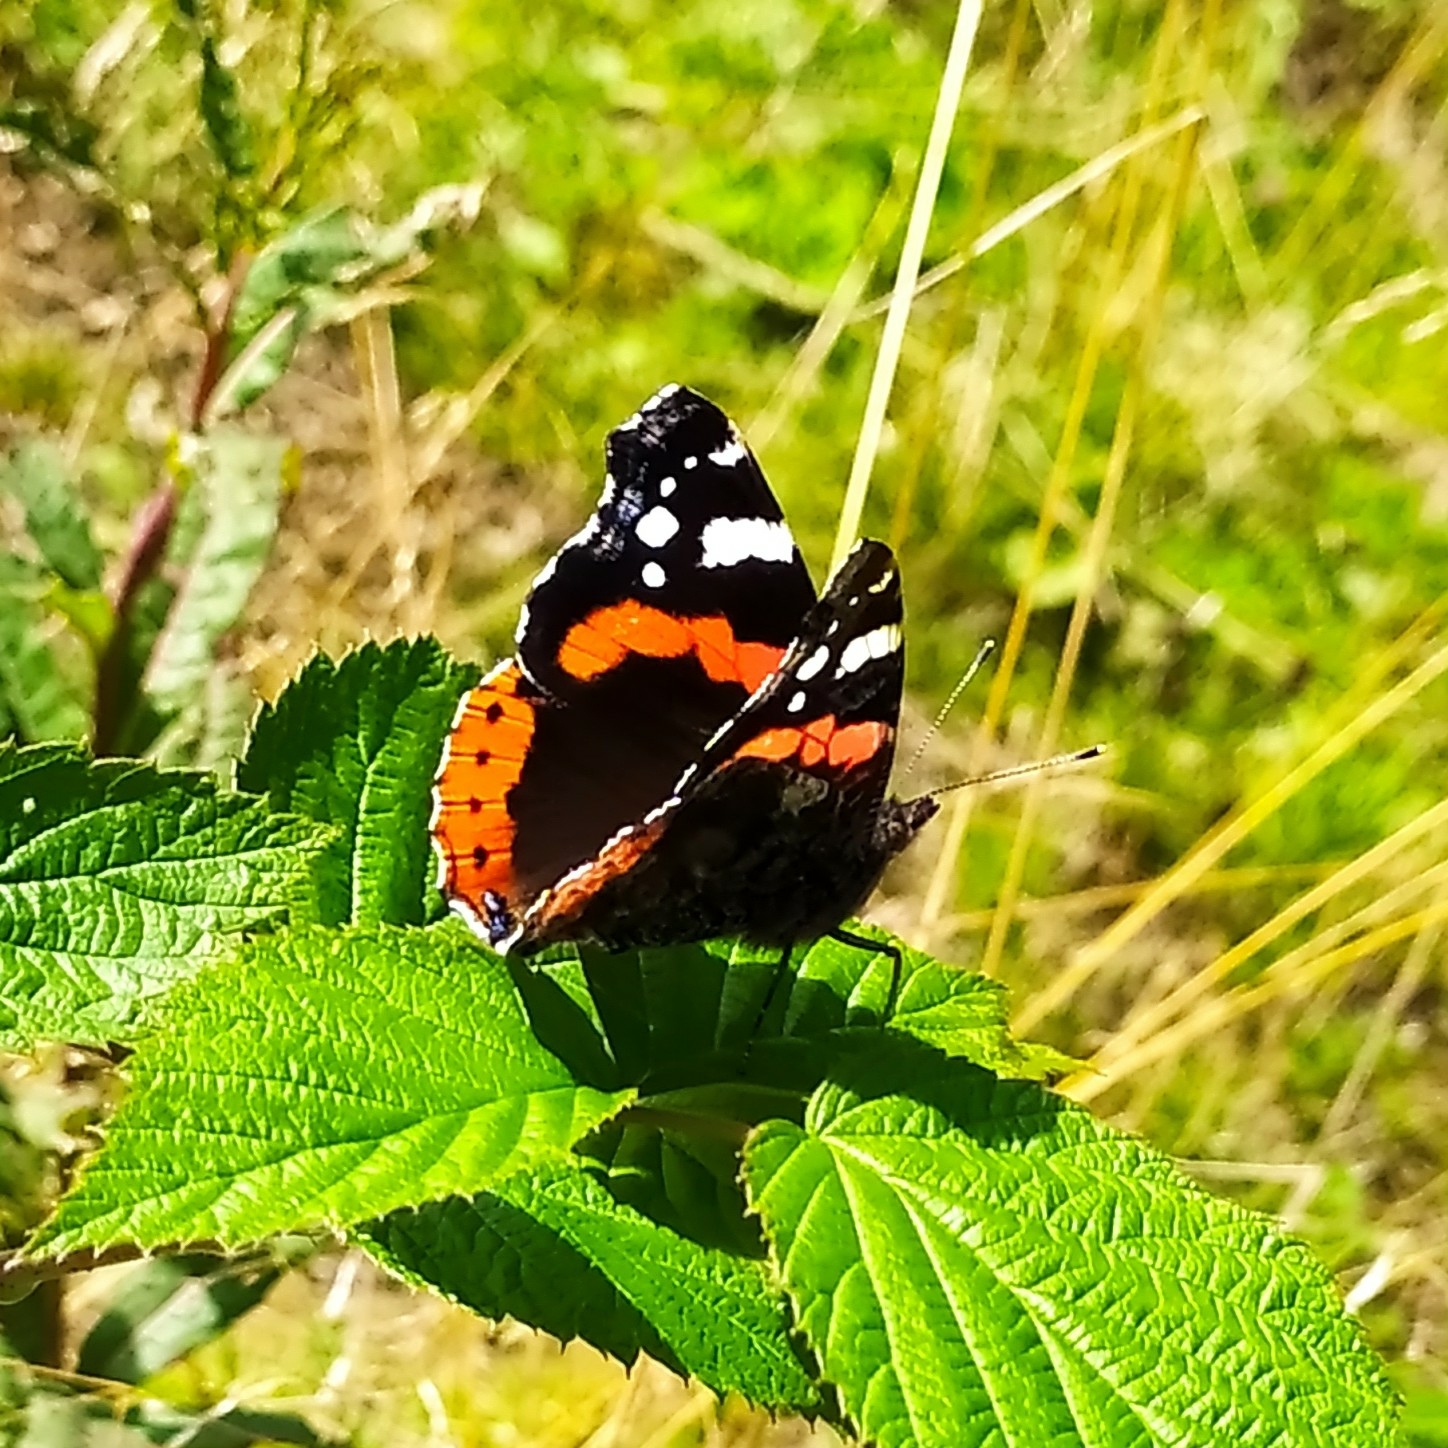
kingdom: Animalia
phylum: Arthropoda
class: Insecta
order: Lepidoptera
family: Nymphalidae
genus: Vanessa
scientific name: Vanessa atalanta
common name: Red admiral
